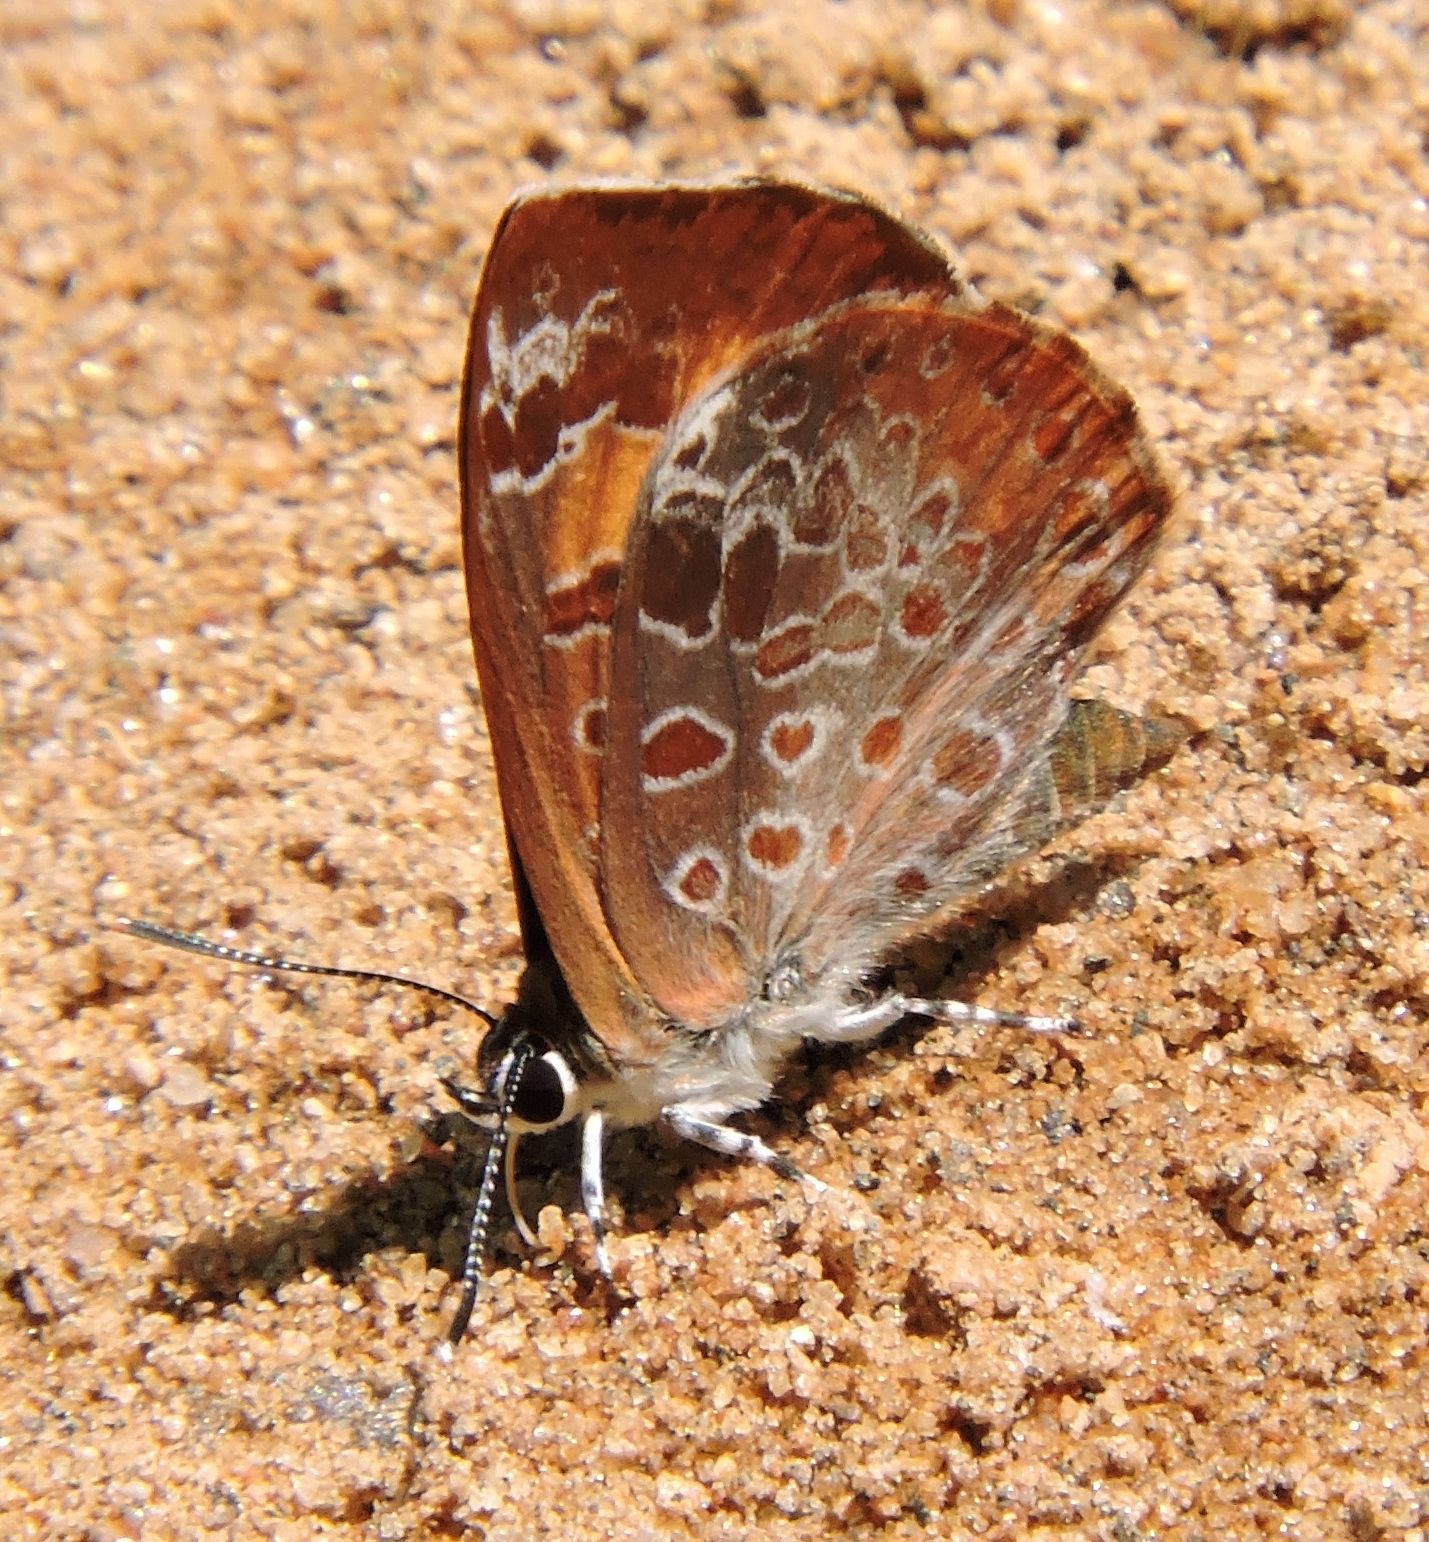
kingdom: Animalia
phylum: Arthropoda
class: Insecta
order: Lepidoptera
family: Lycaenidae
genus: Feniseca
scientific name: Feniseca tarquinius
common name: Harvester
